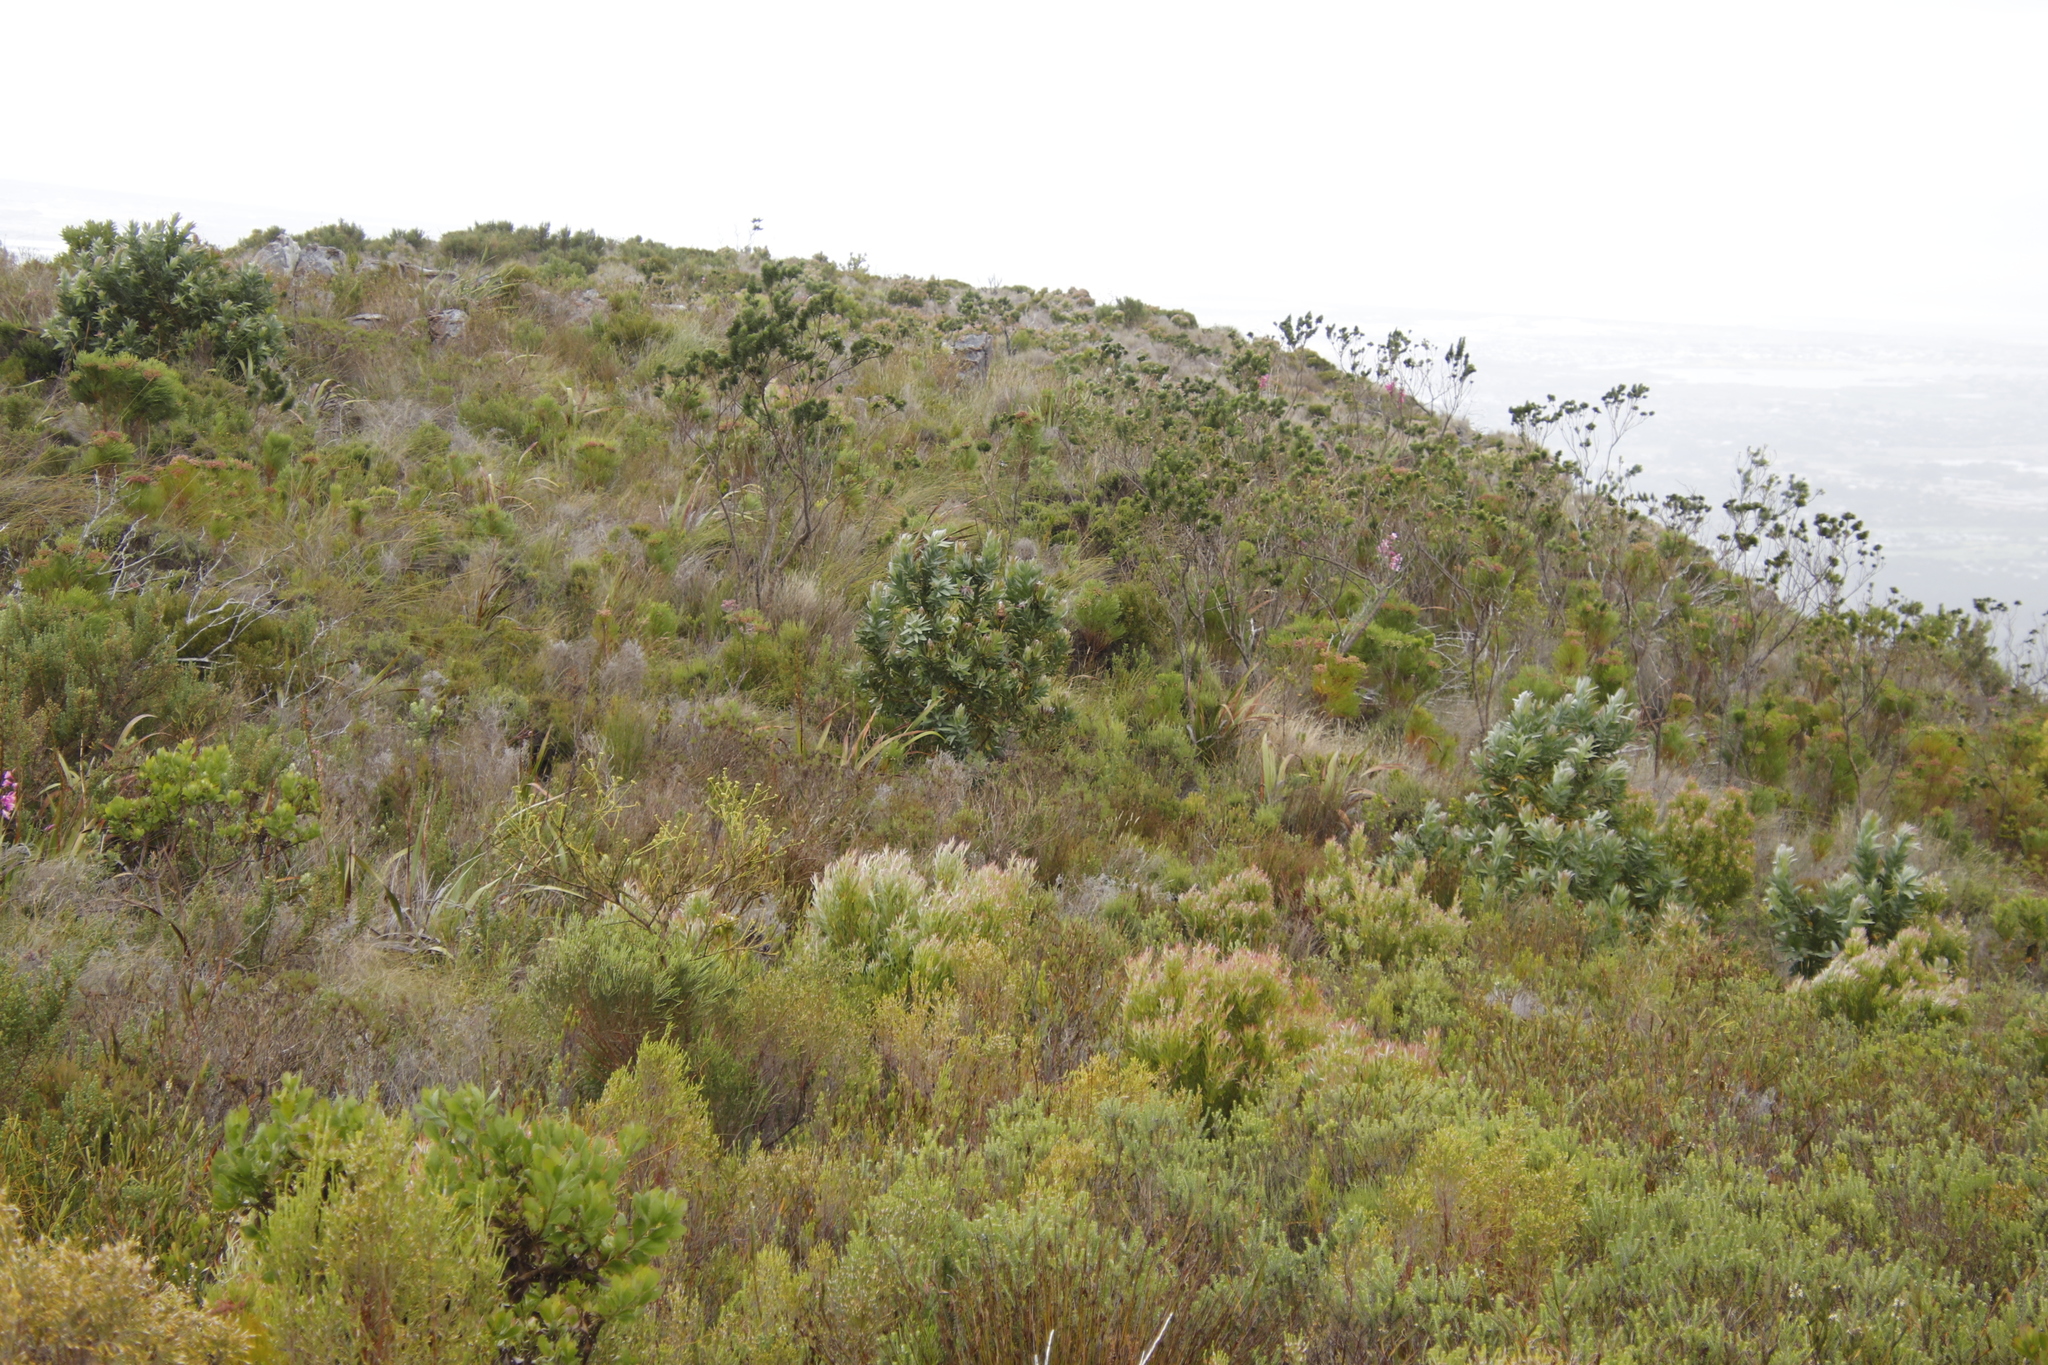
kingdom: Plantae
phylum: Tracheophyta
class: Magnoliopsida
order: Proteales
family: Proteaceae
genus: Protea
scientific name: Protea coronata
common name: Green sugarbush
